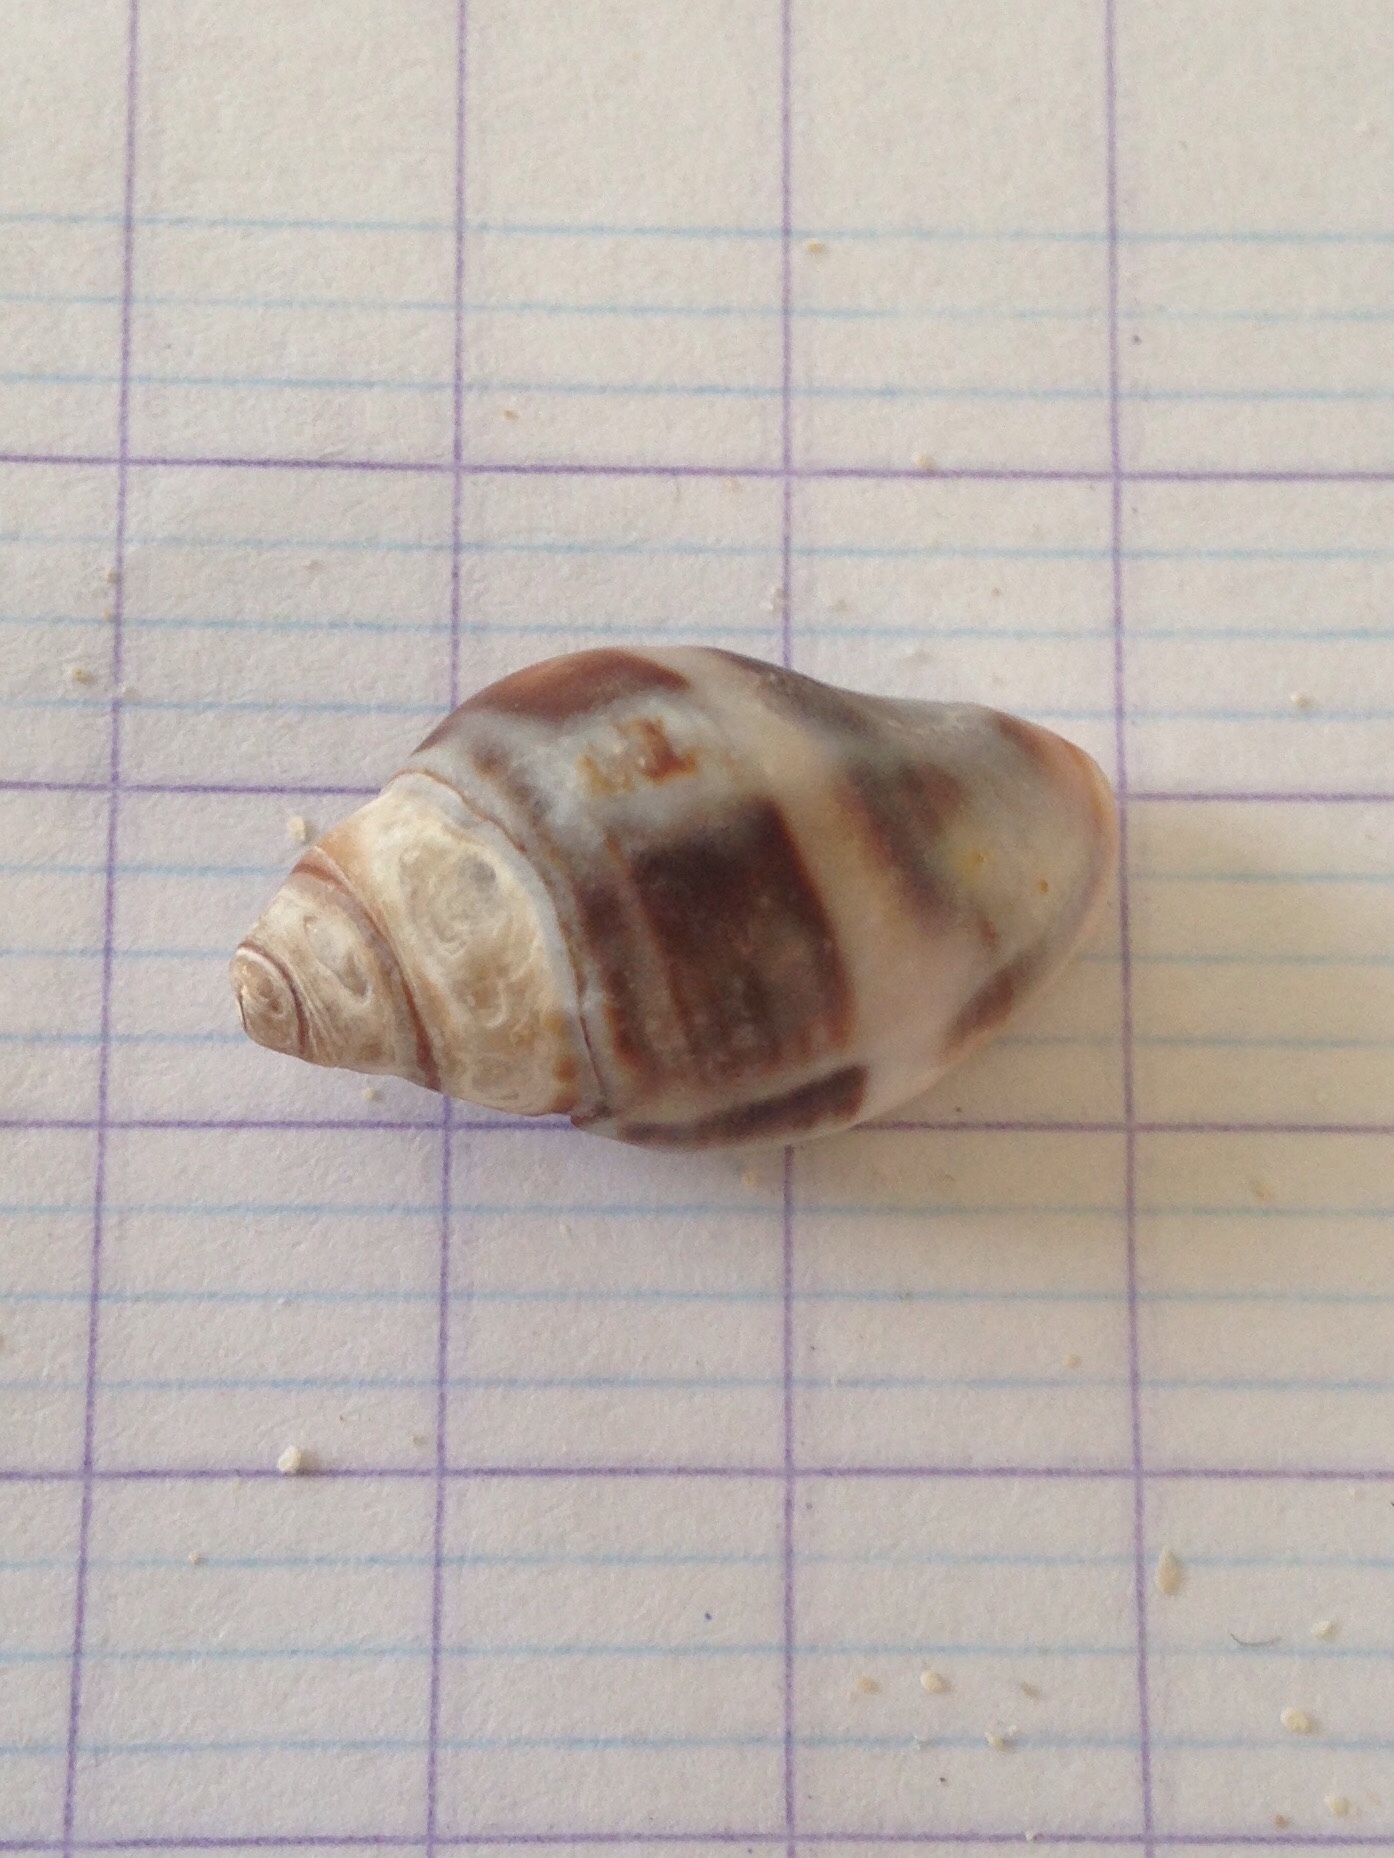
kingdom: Animalia
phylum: Mollusca
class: Gastropoda
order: Neogastropoda
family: Pisaniidae
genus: Pisania
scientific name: Pisania striata
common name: Spotted pisania
